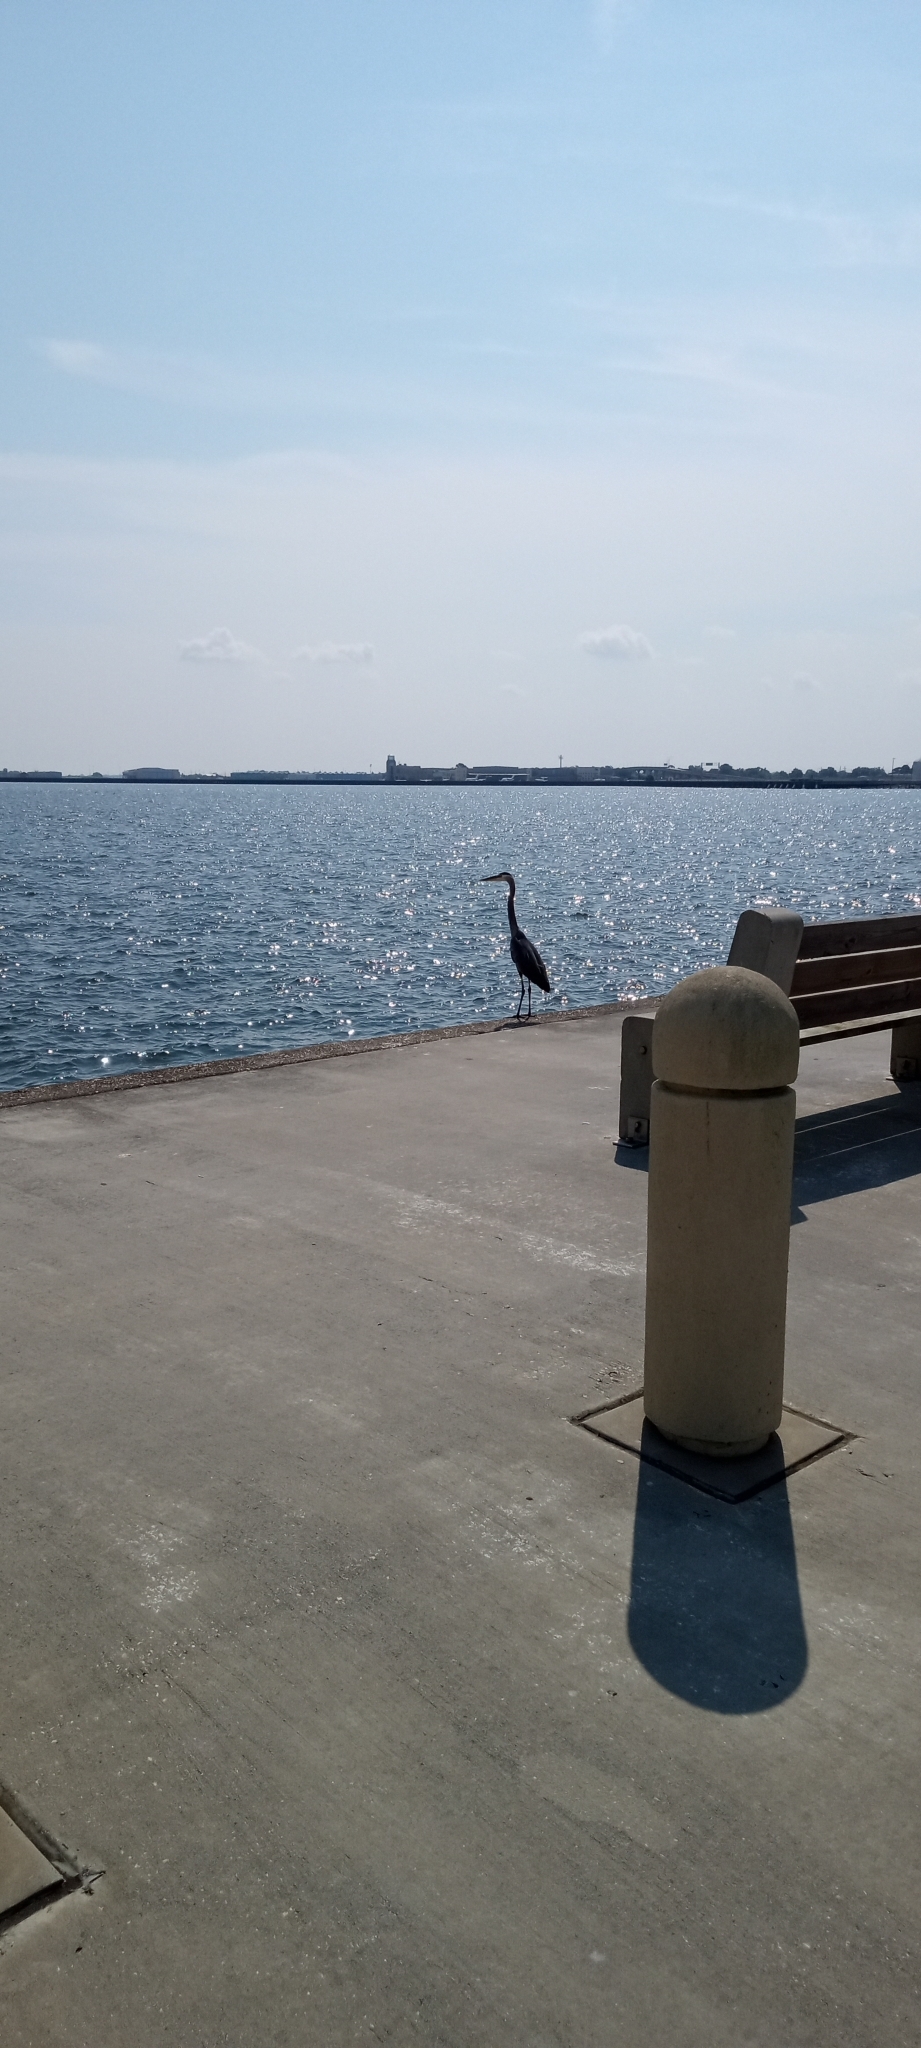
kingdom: Animalia
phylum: Chordata
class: Aves
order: Pelecaniformes
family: Ardeidae
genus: Ardea
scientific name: Ardea herodias
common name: Great blue heron
